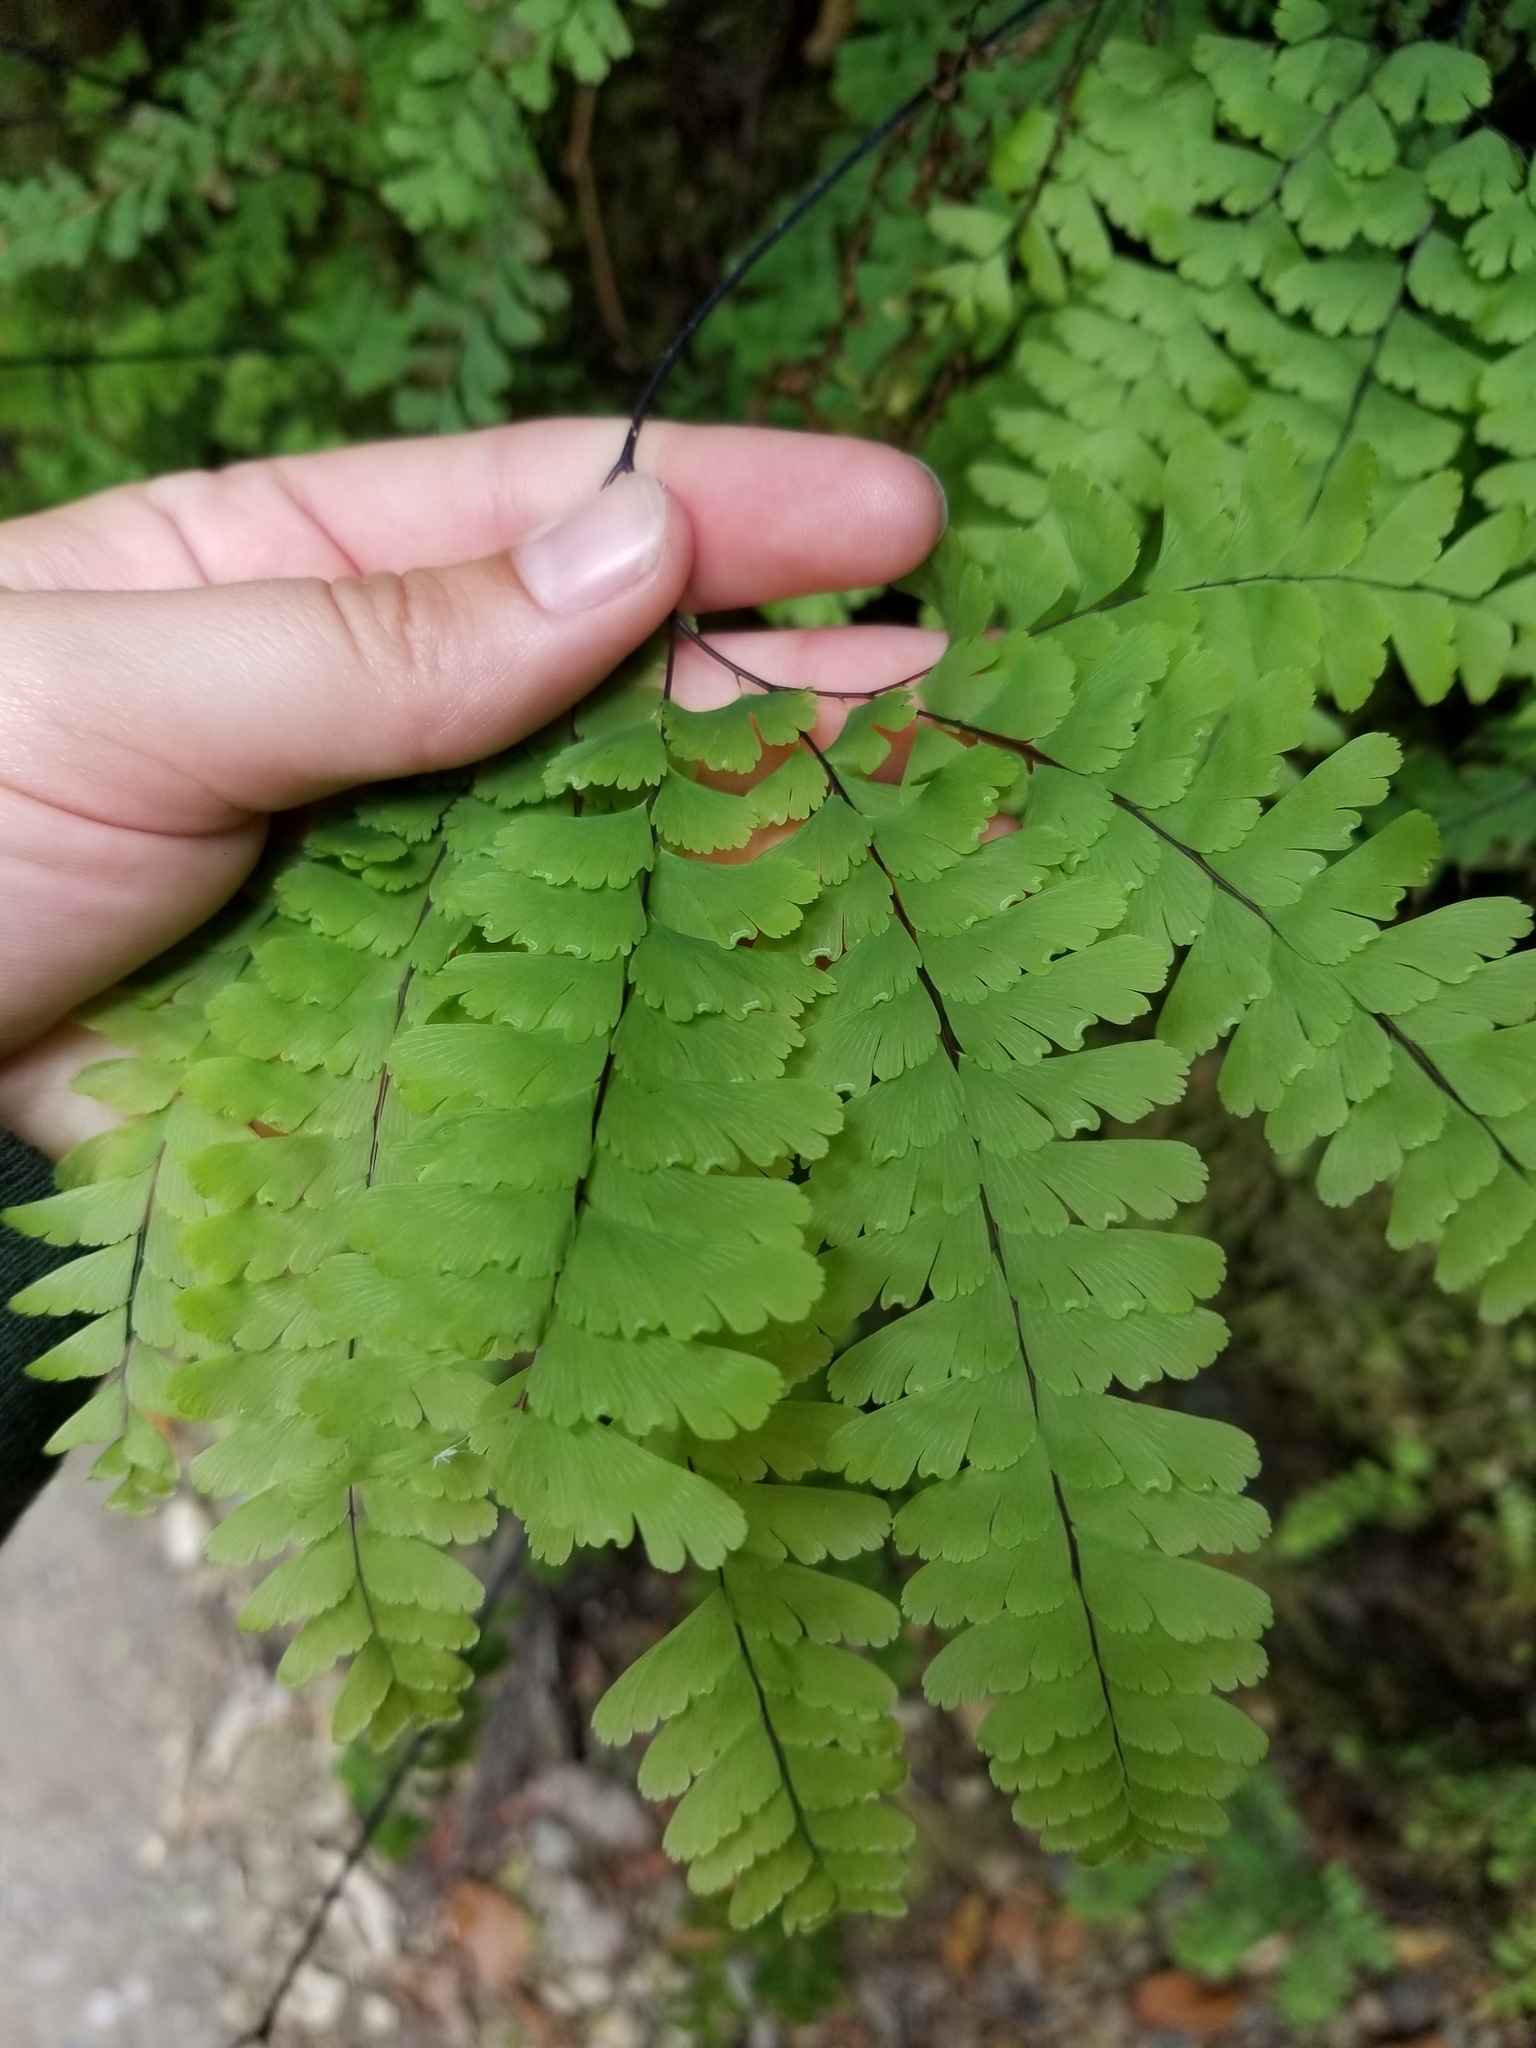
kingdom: Plantae
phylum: Tracheophyta
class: Polypodiopsida
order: Polypodiales
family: Pteridaceae
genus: Adiantum
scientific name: Adiantum aleuticum
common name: Aleutian maidenhair fern
